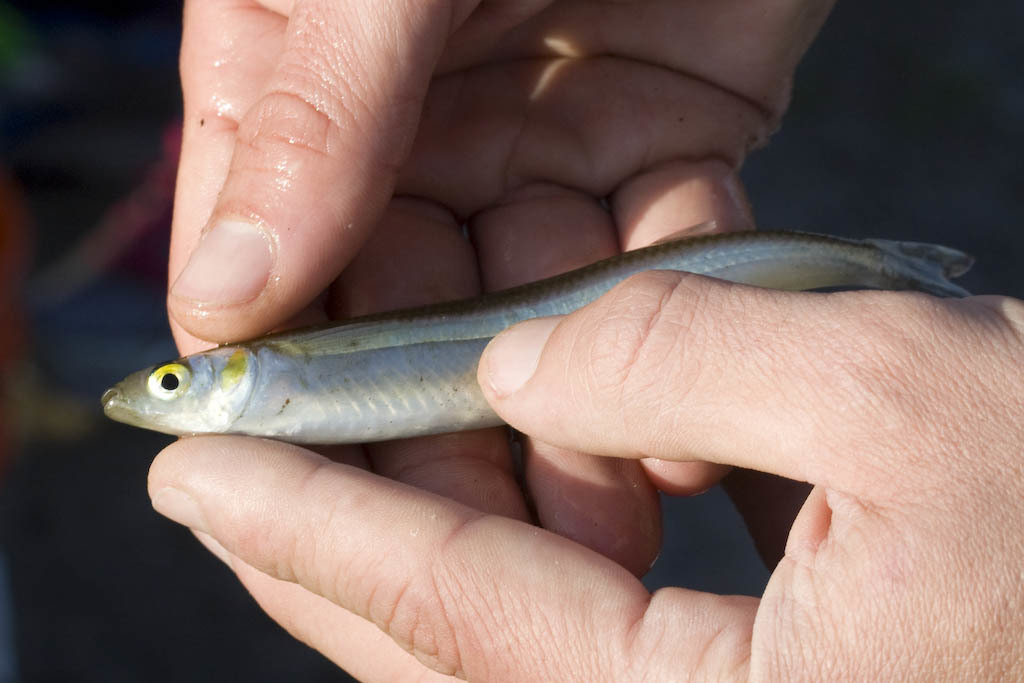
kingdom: Animalia
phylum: Chordata
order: Atheriniformes
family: Atherinopsidae
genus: Atherinops
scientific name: Atherinops affinis
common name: Topsmelt
